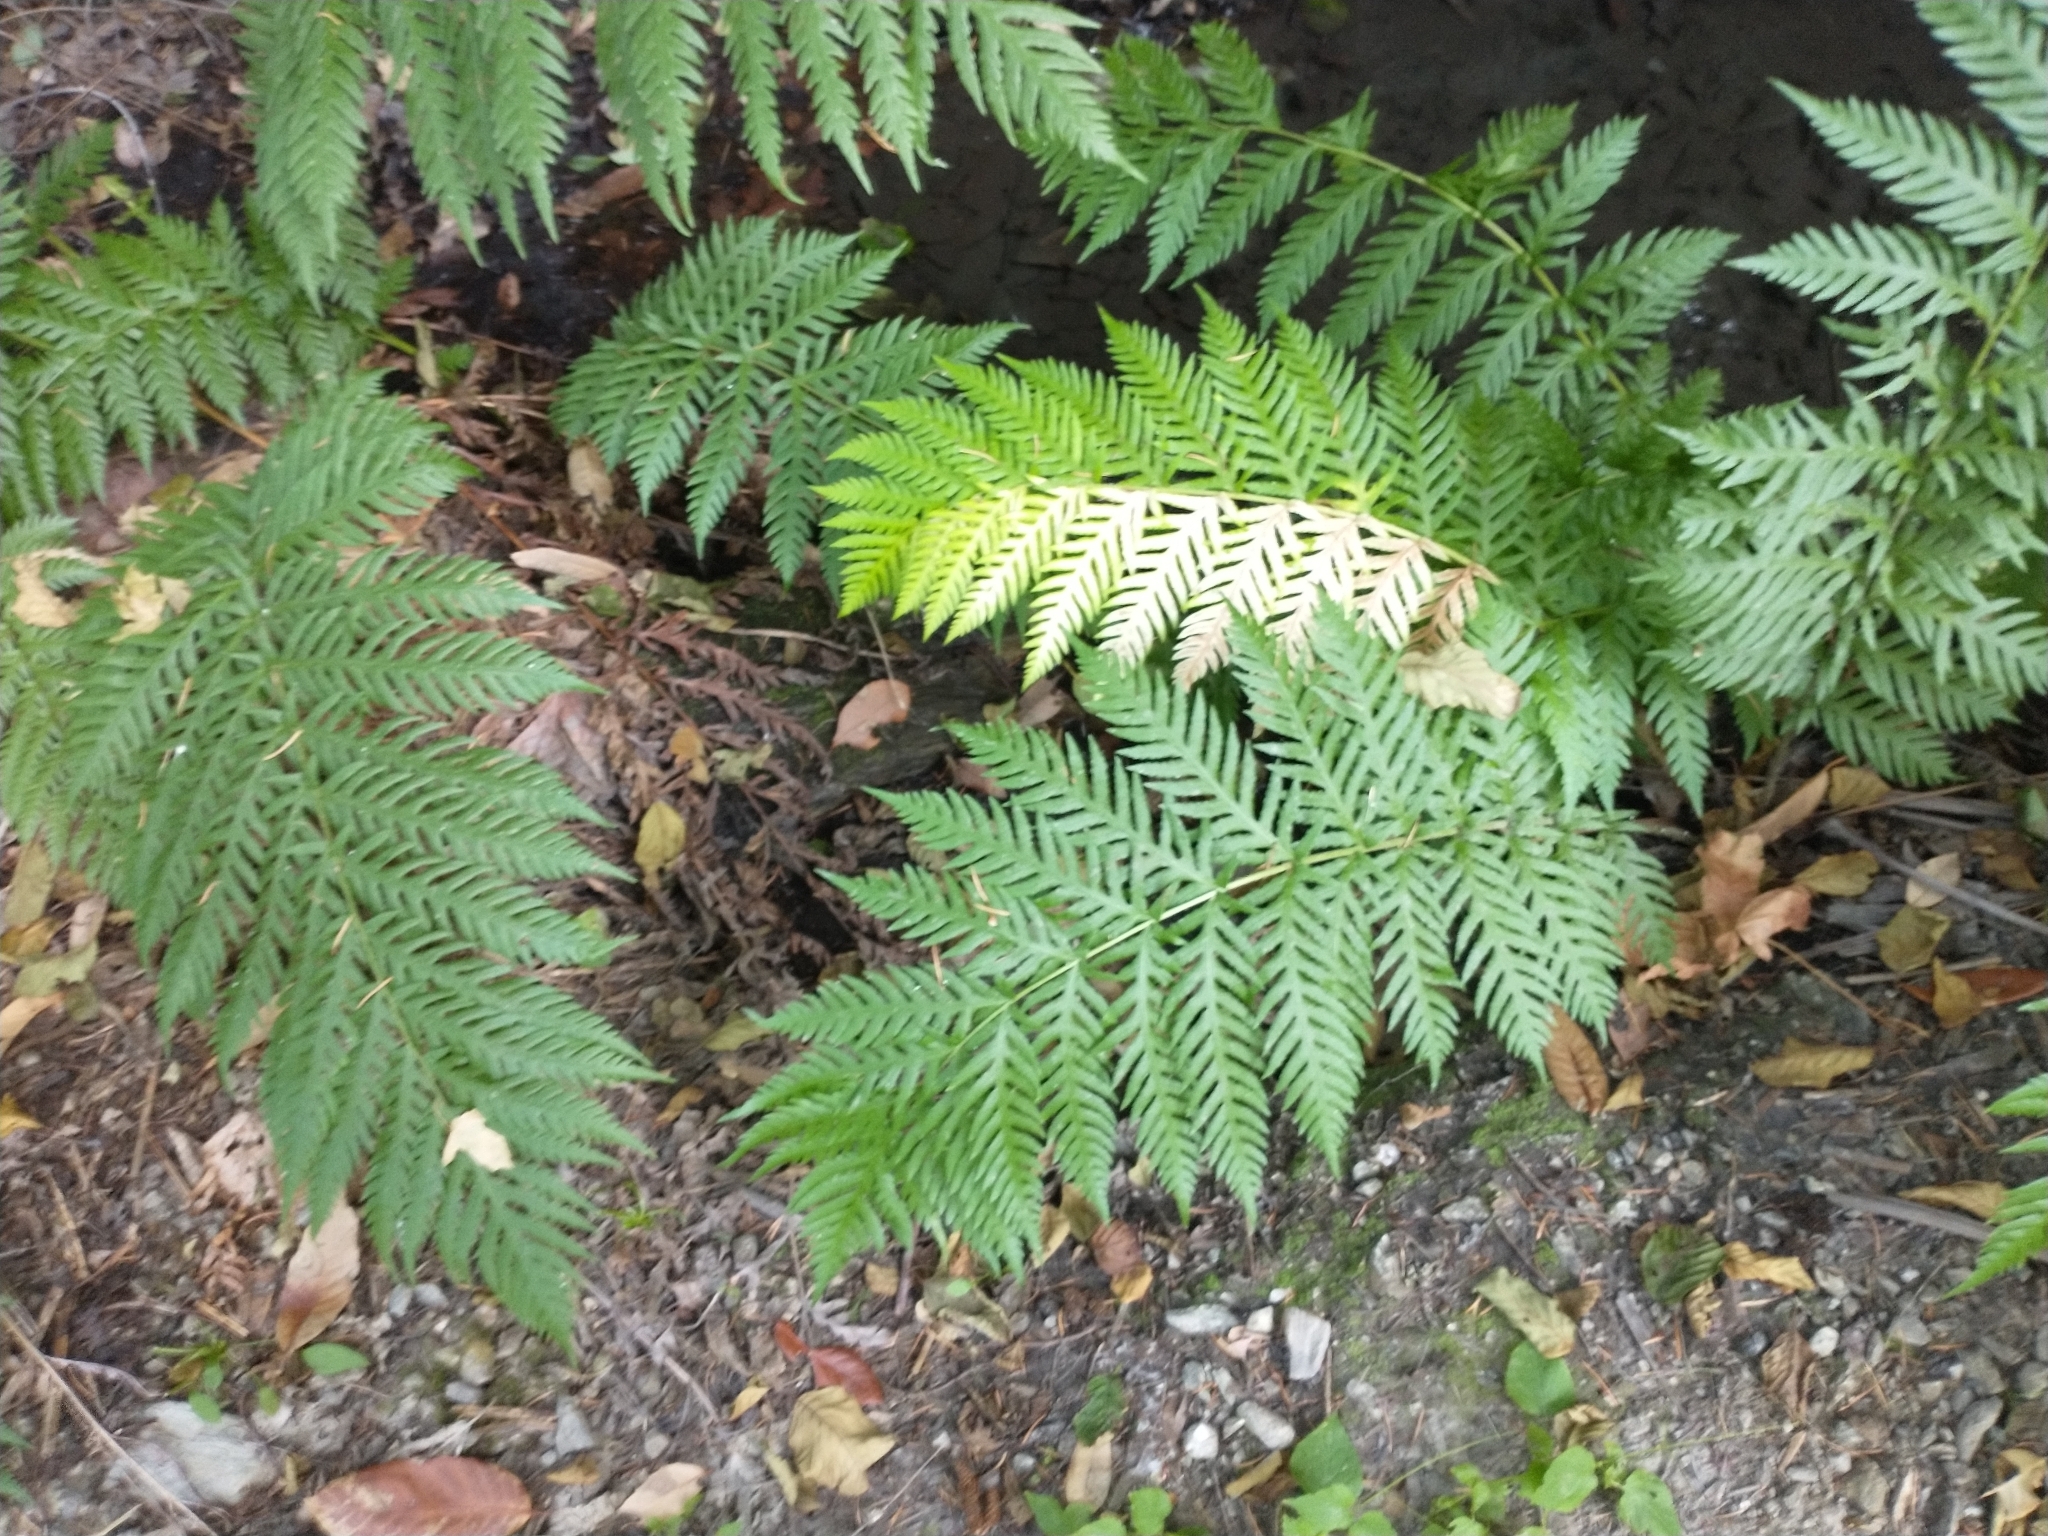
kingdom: Plantae
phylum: Tracheophyta
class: Polypodiopsida
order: Polypodiales
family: Blechnaceae
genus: Woodwardia
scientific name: Woodwardia fimbriata
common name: Giant chain fern
